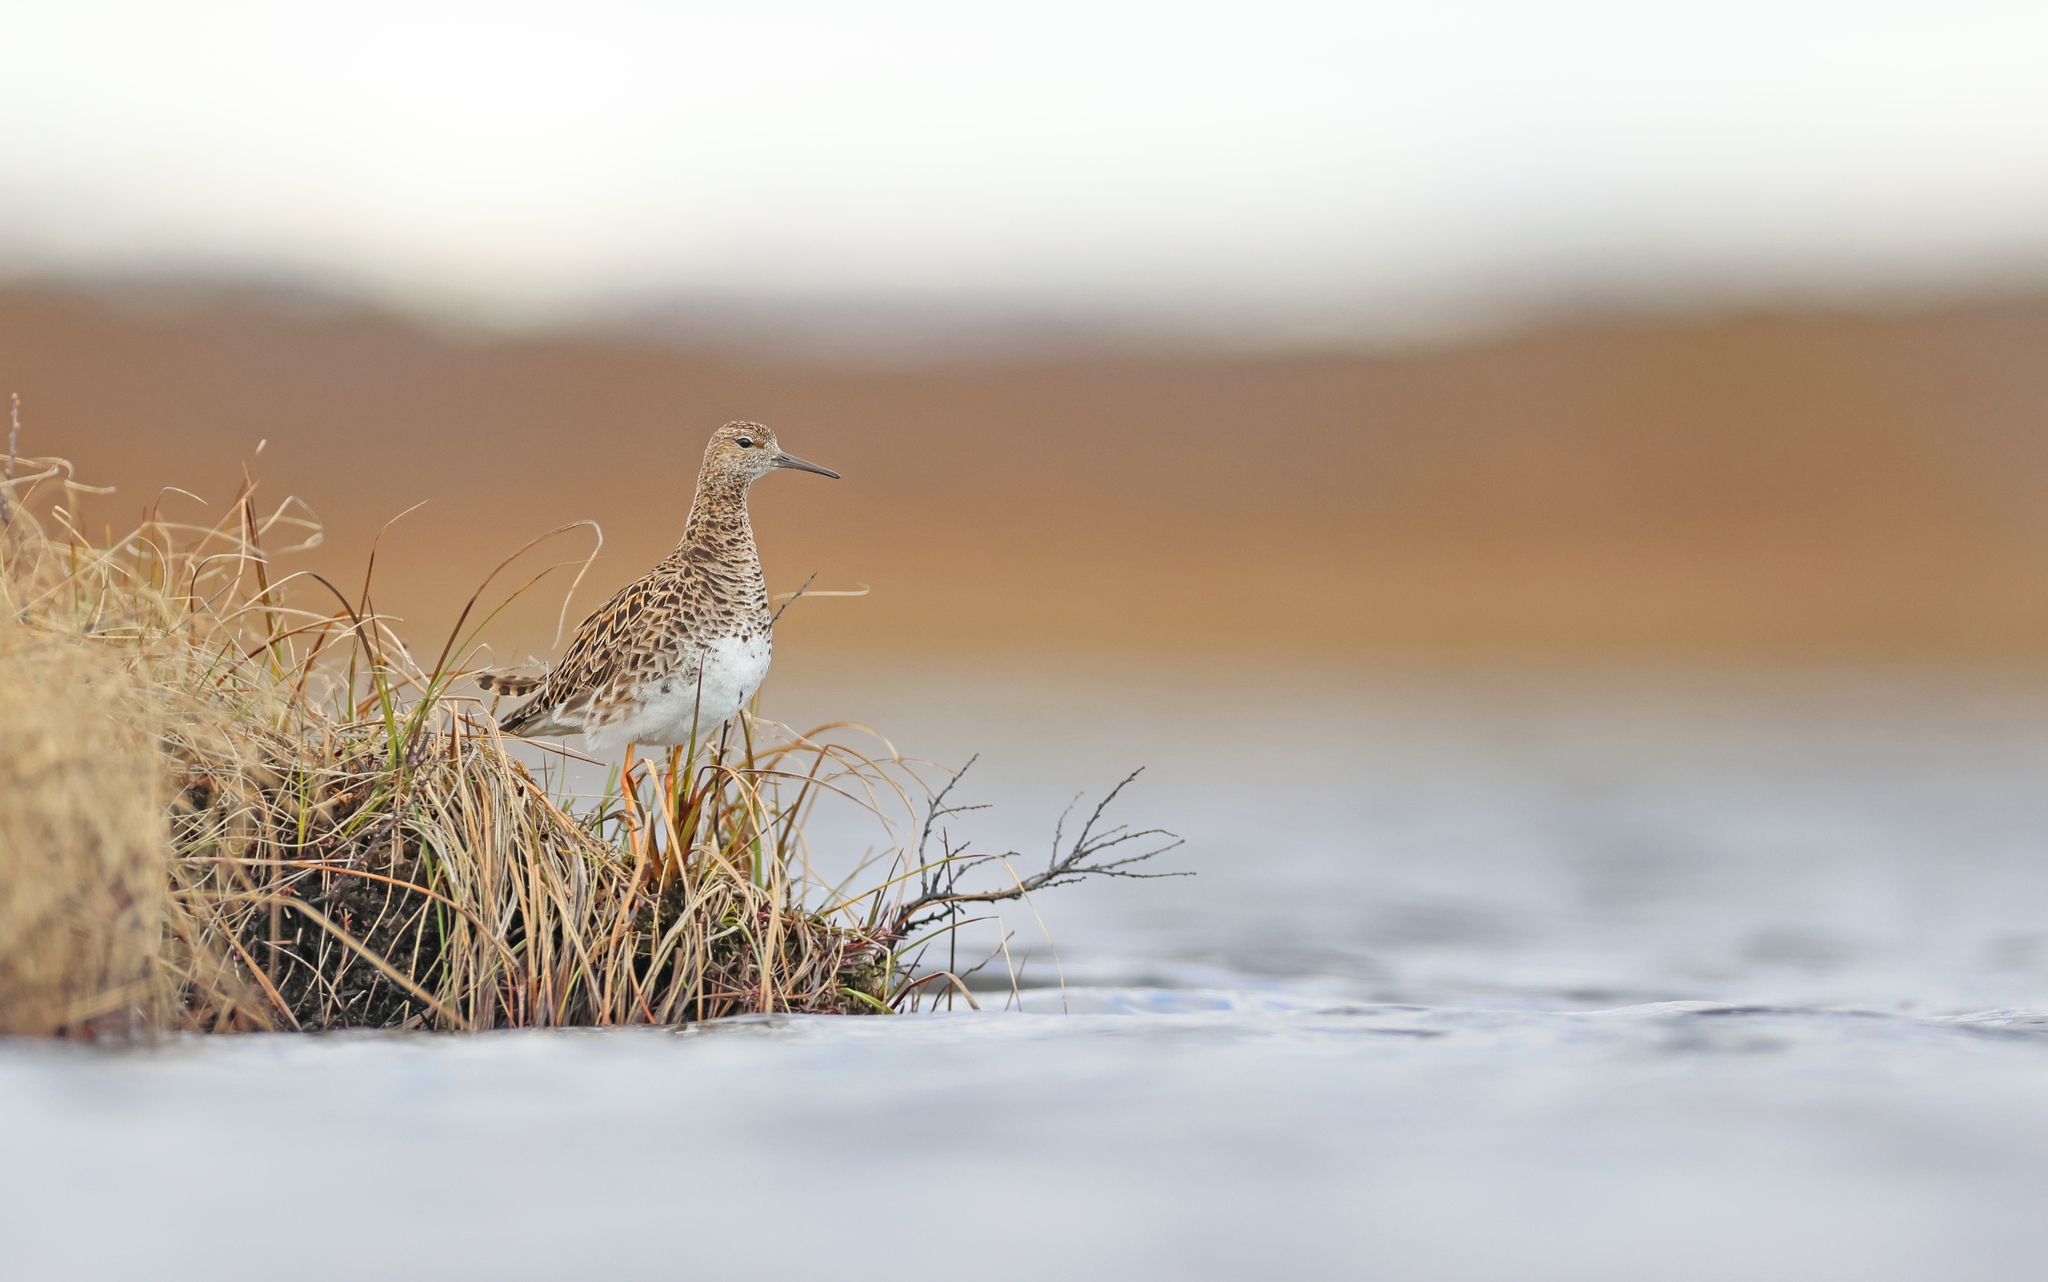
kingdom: Animalia
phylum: Chordata
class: Aves
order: Charadriiformes
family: Scolopacidae
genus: Calidris
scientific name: Calidris pugnax
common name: Ruff
